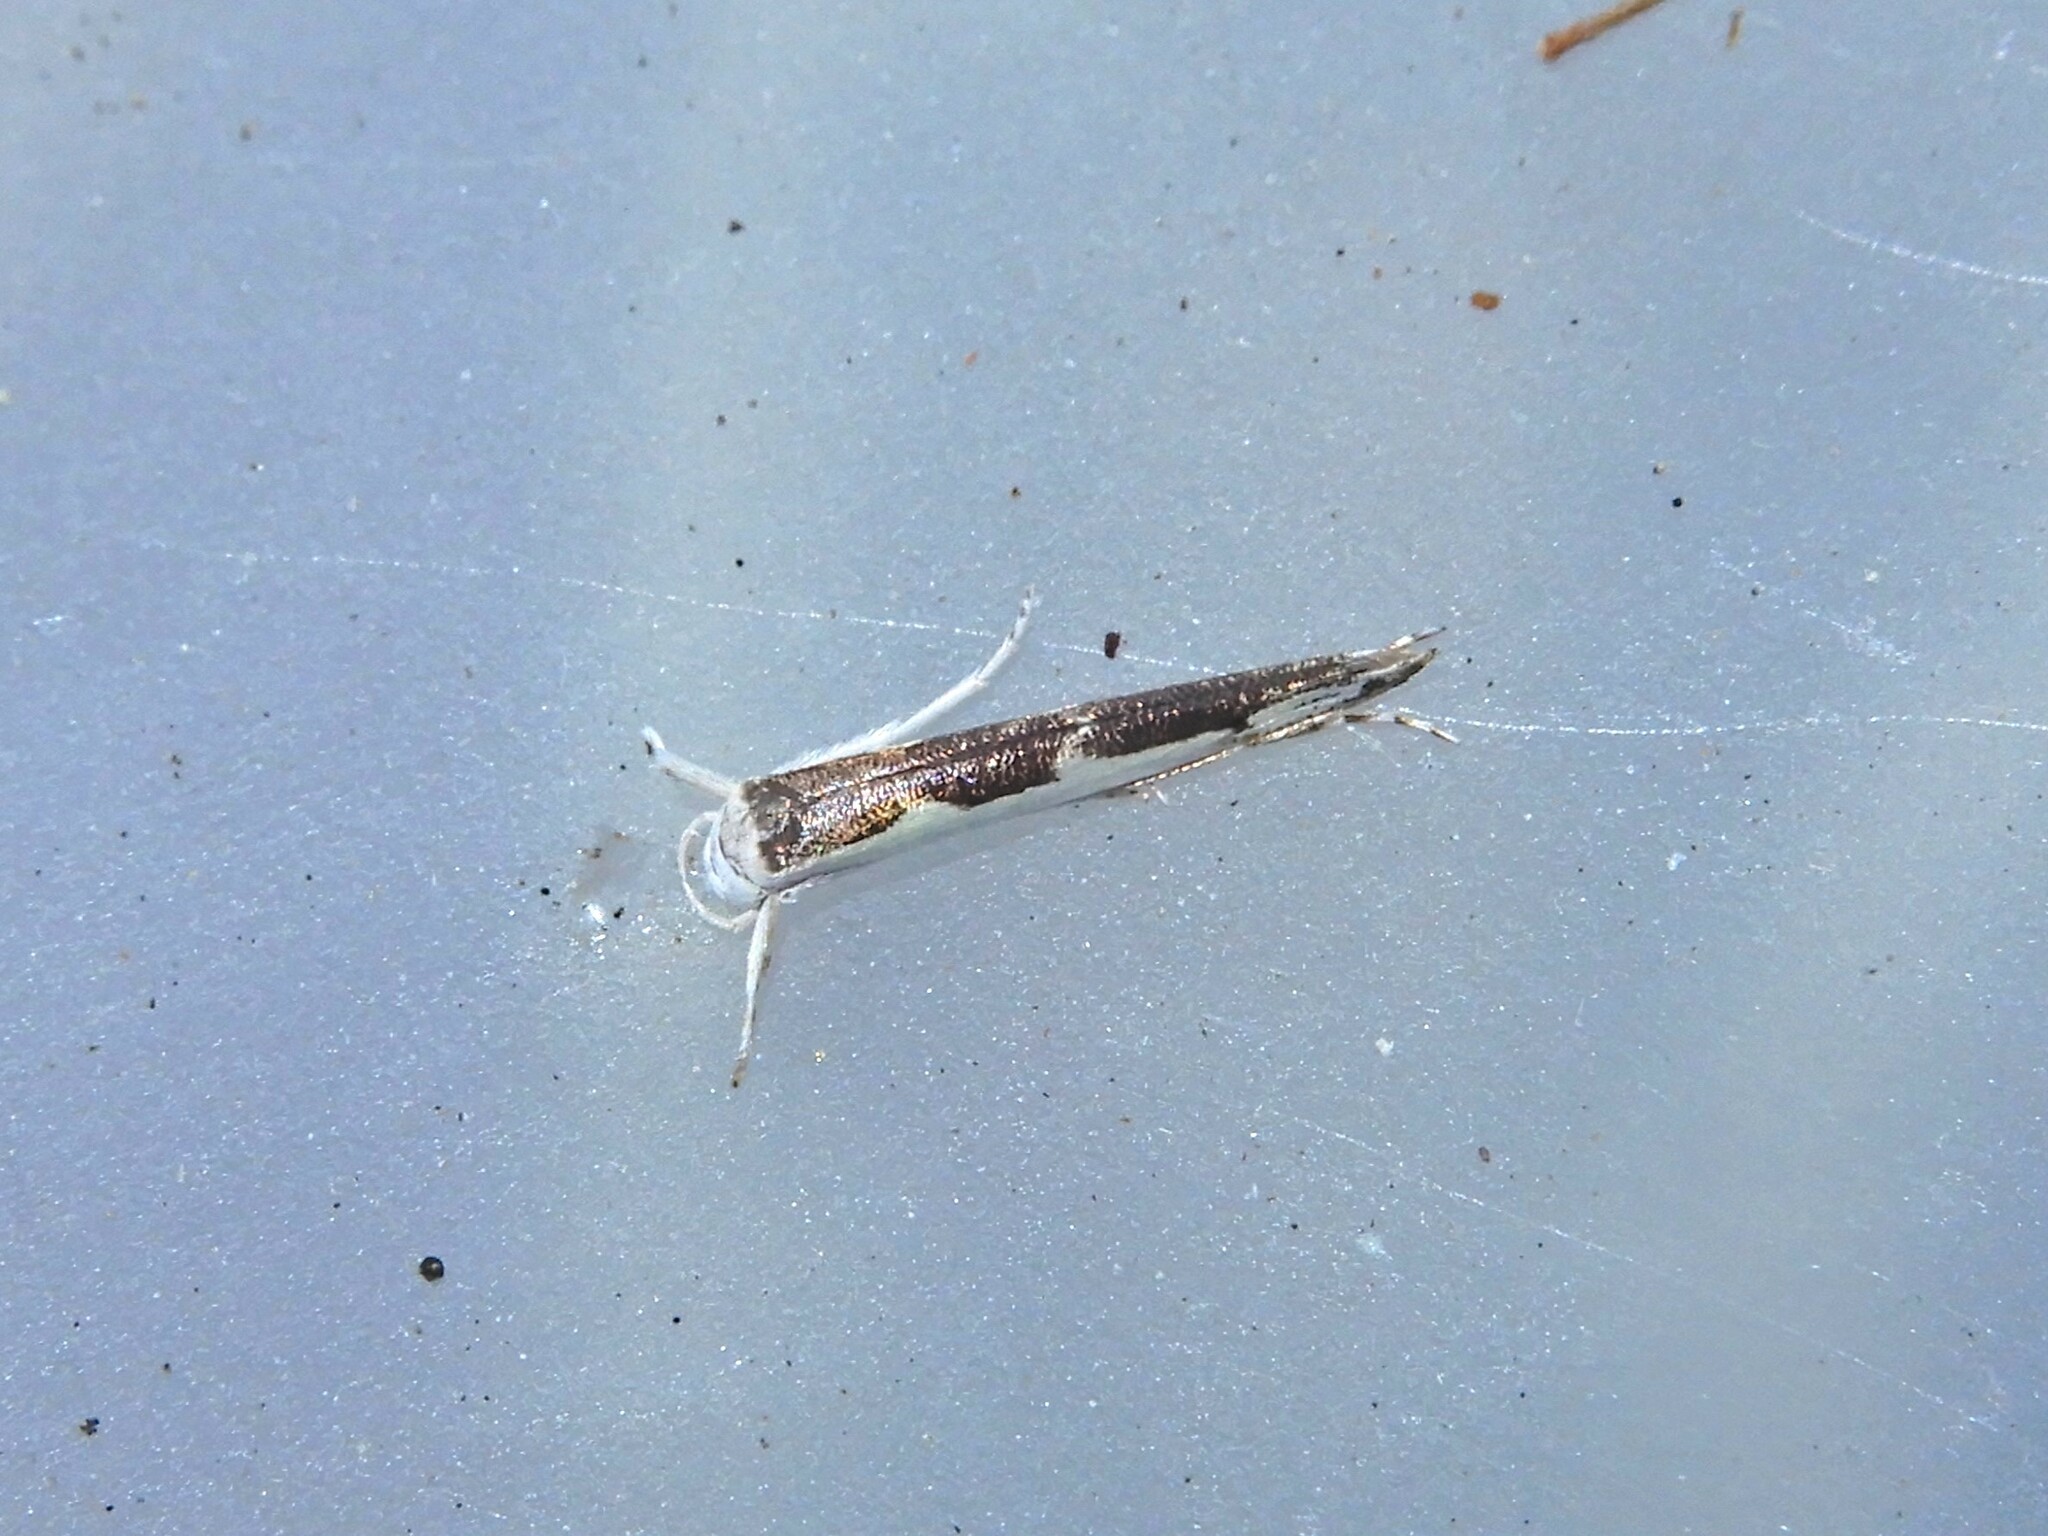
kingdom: Animalia
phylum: Arthropoda
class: Insecta
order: Lepidoptera
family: Roeslerstammiidae
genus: Vanicela
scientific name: Vanicela disjunctella
